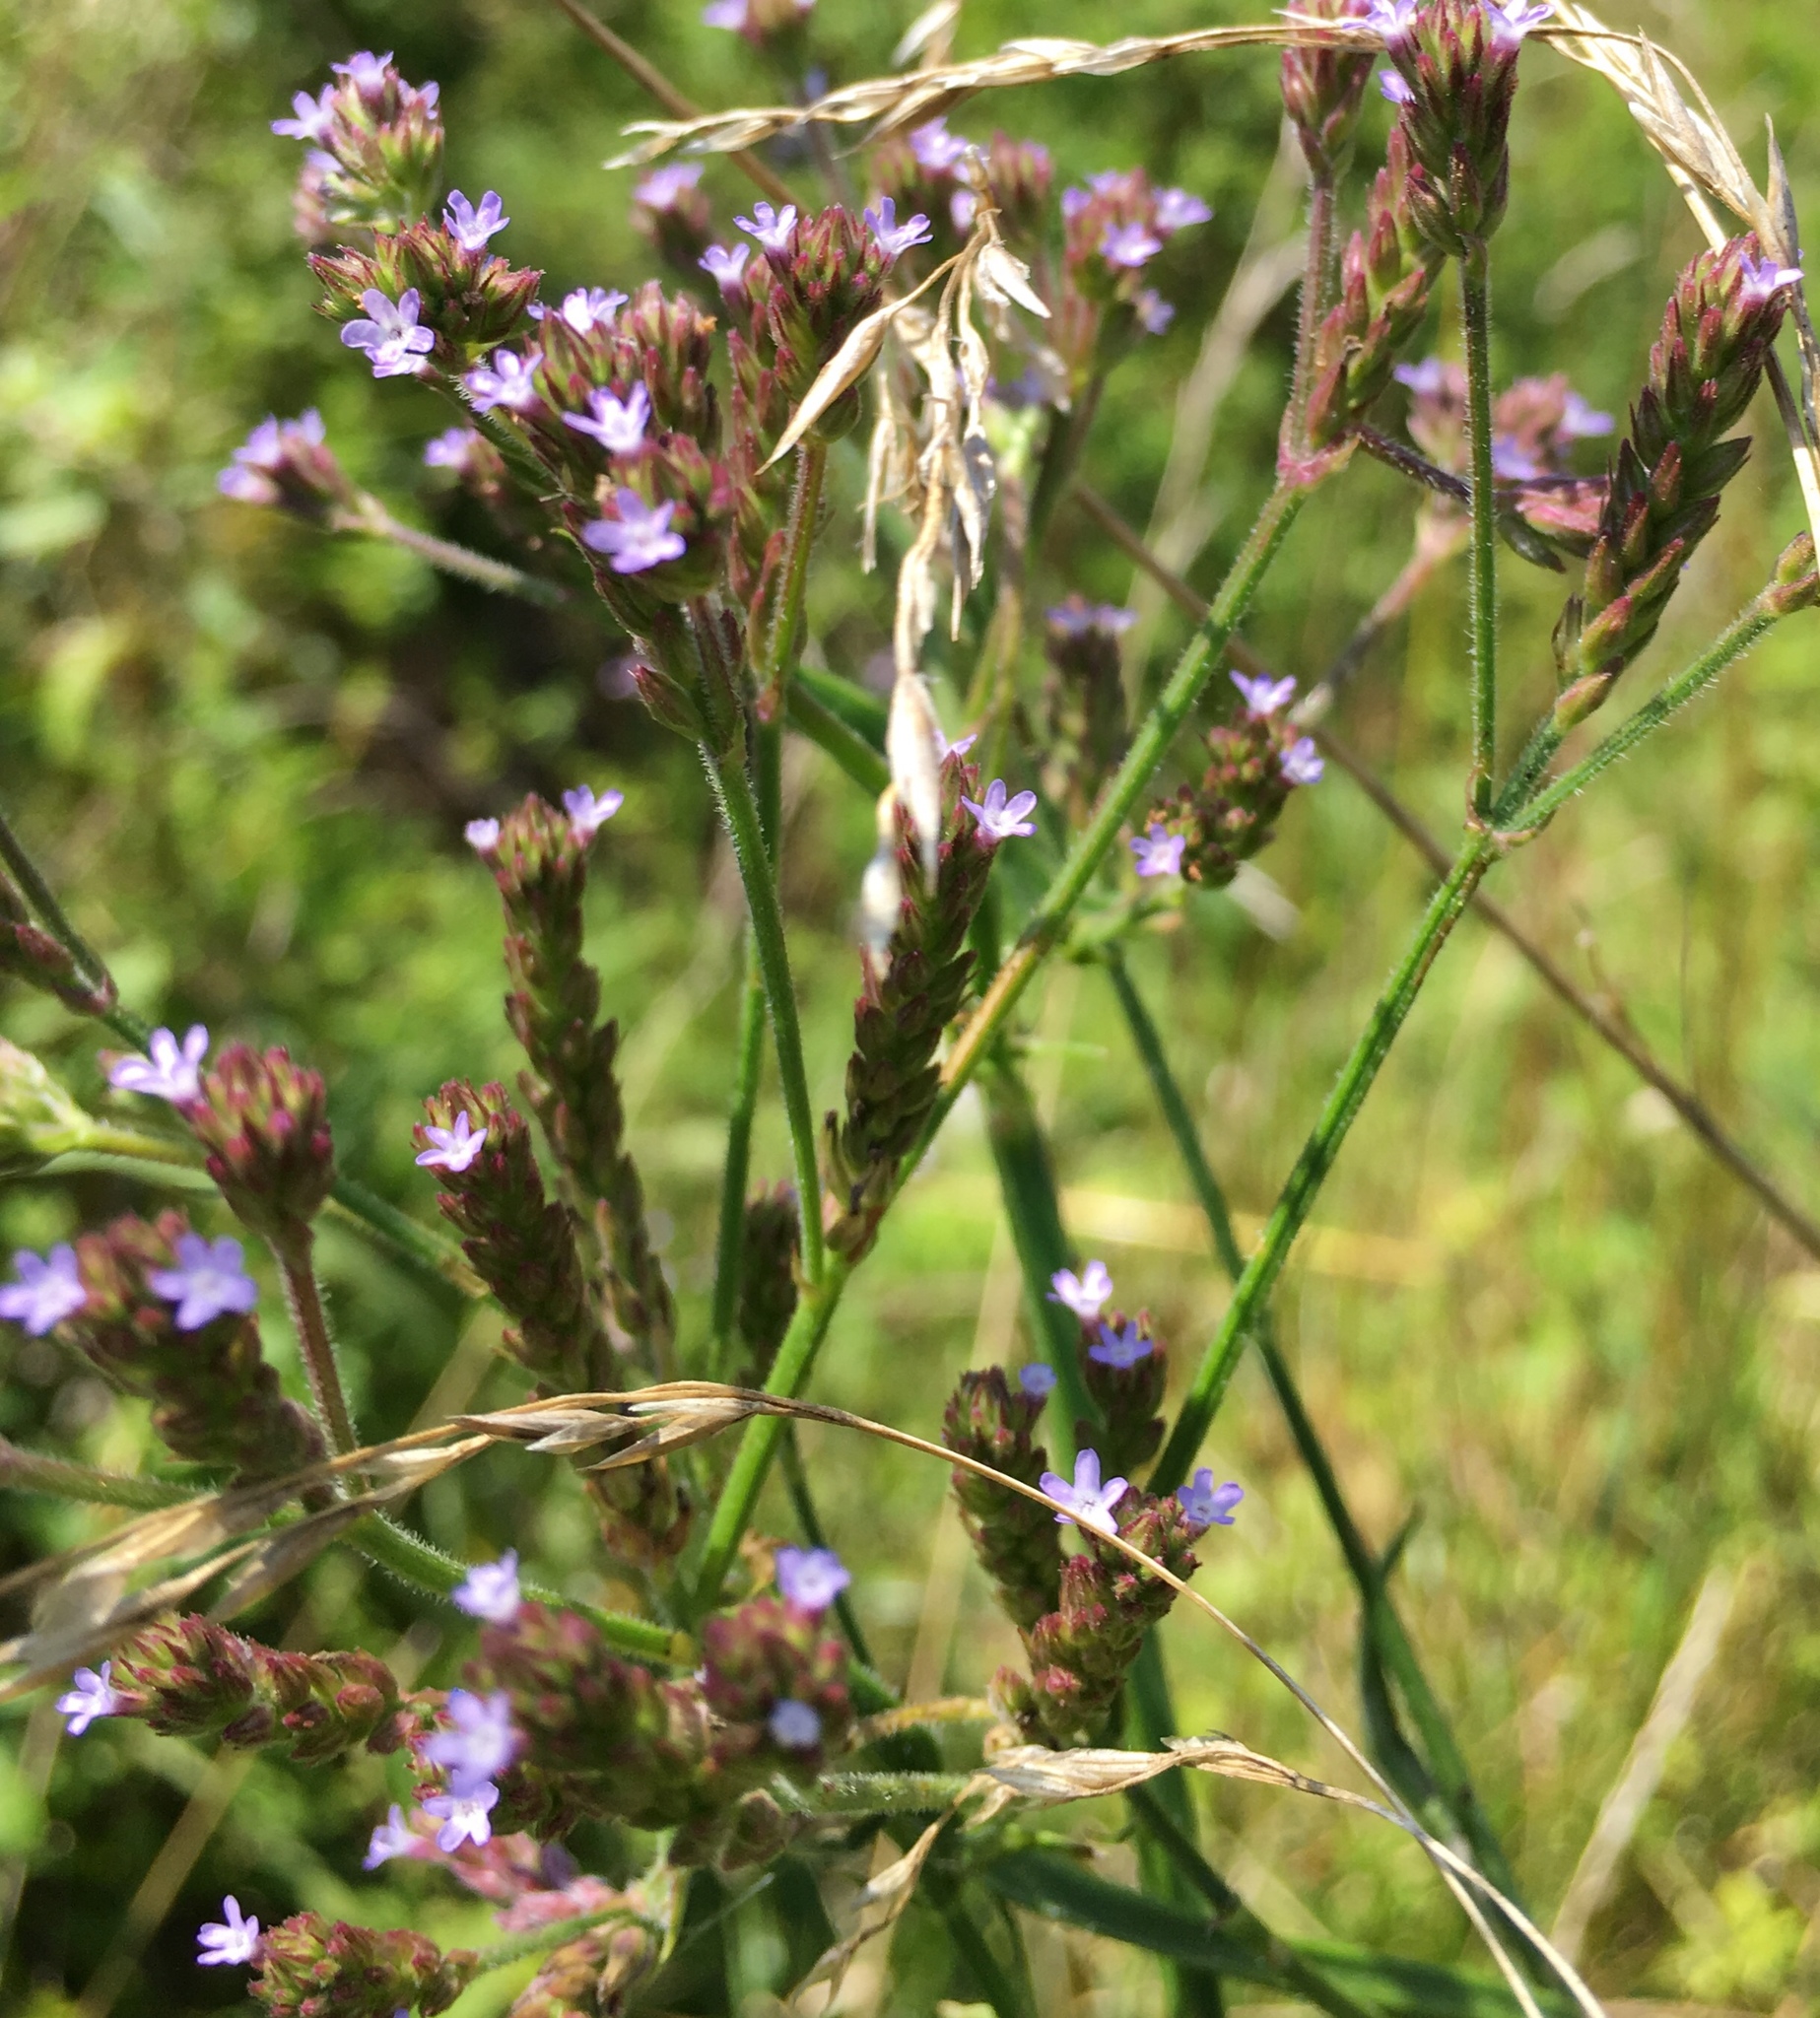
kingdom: Plantae
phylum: Tracheophyta
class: Magnoliopsida
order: Lamiales
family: Verbenaceae
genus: Verbena
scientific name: Verbena brasiliensis
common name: Brazilian vervain
